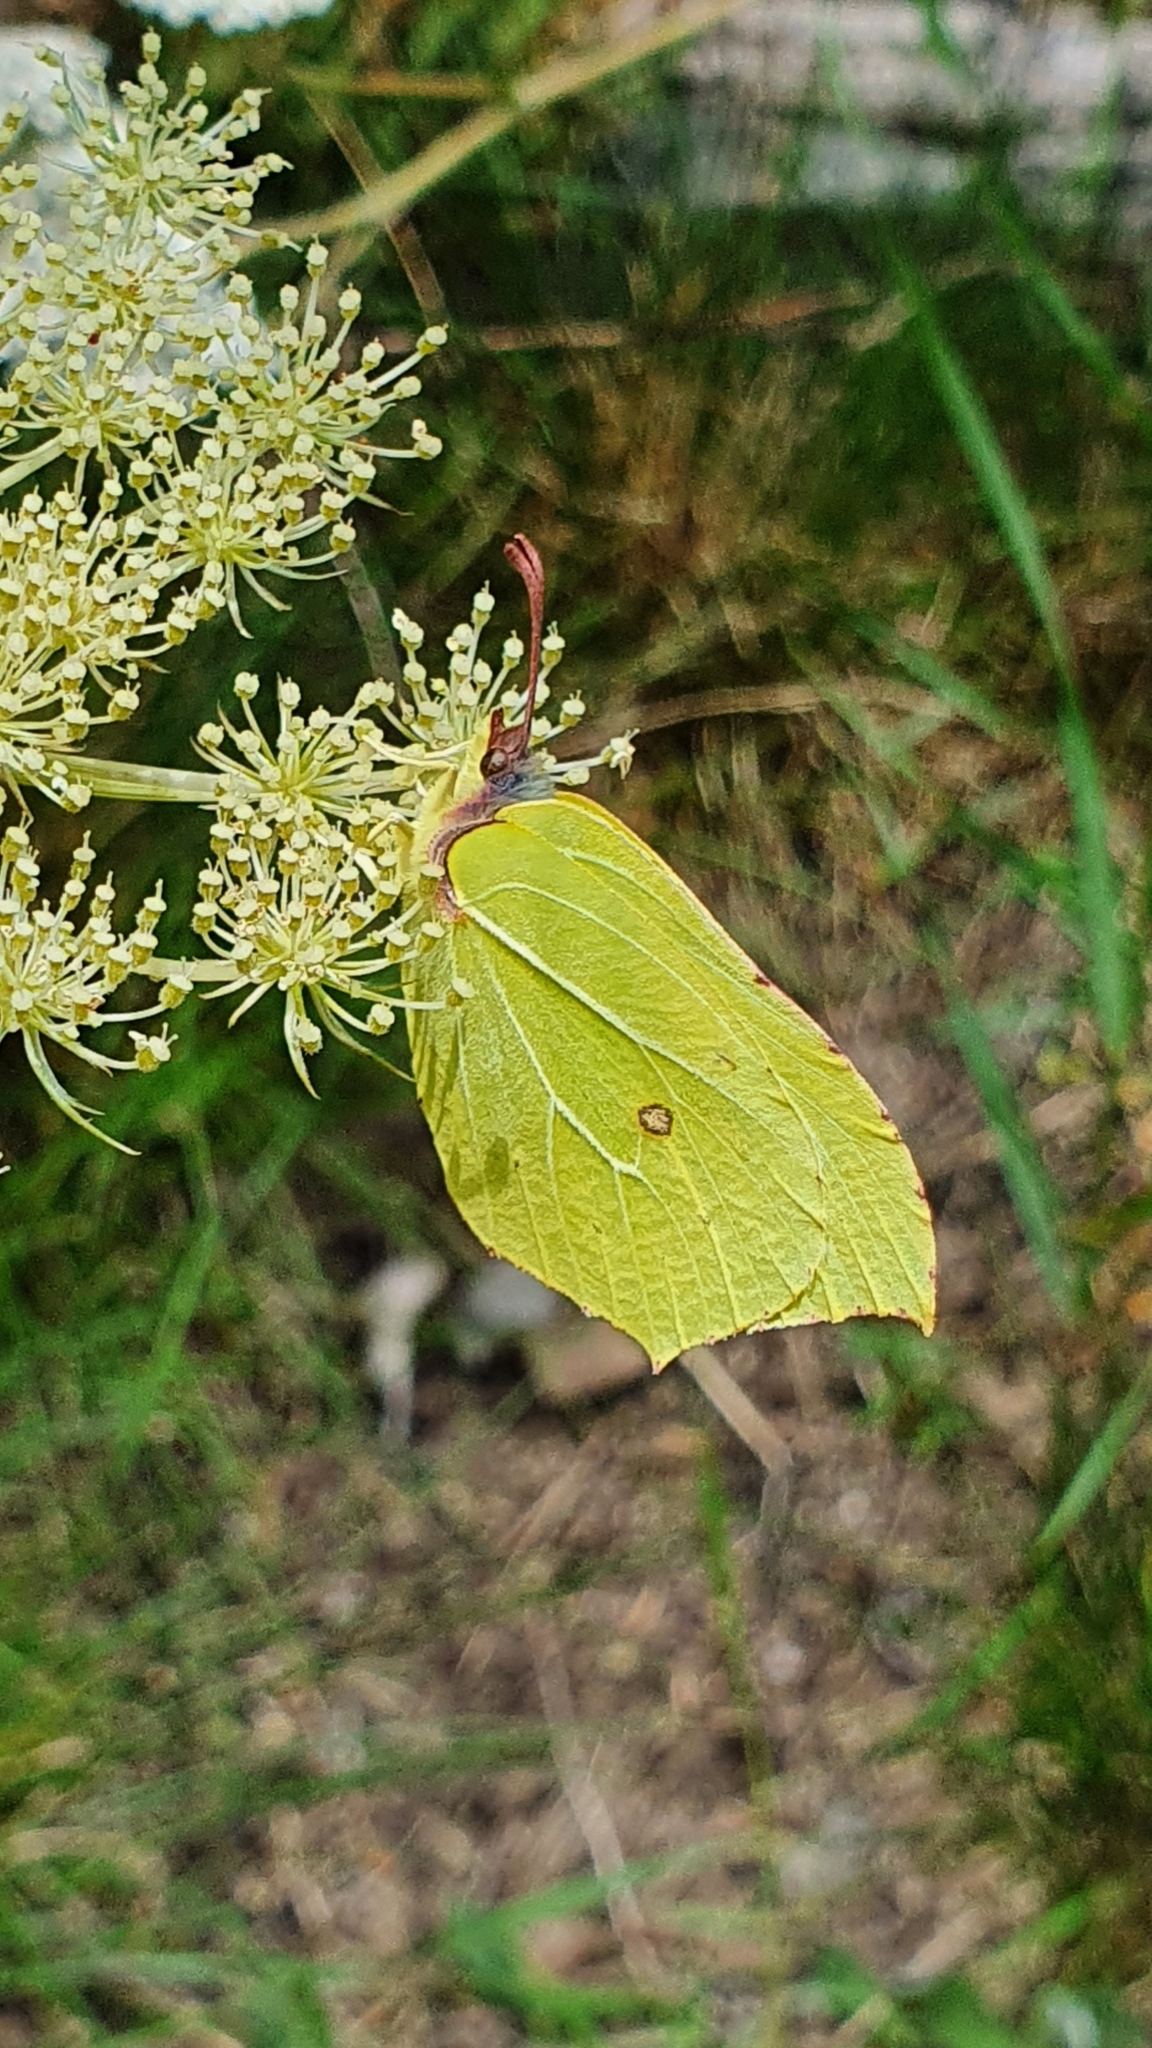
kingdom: Animalia
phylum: Arthropoda
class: Insecta
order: Lepidoptera
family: Pieridae
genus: Gonepteryx
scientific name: Gonepteryx rhamni
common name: Brimstone
